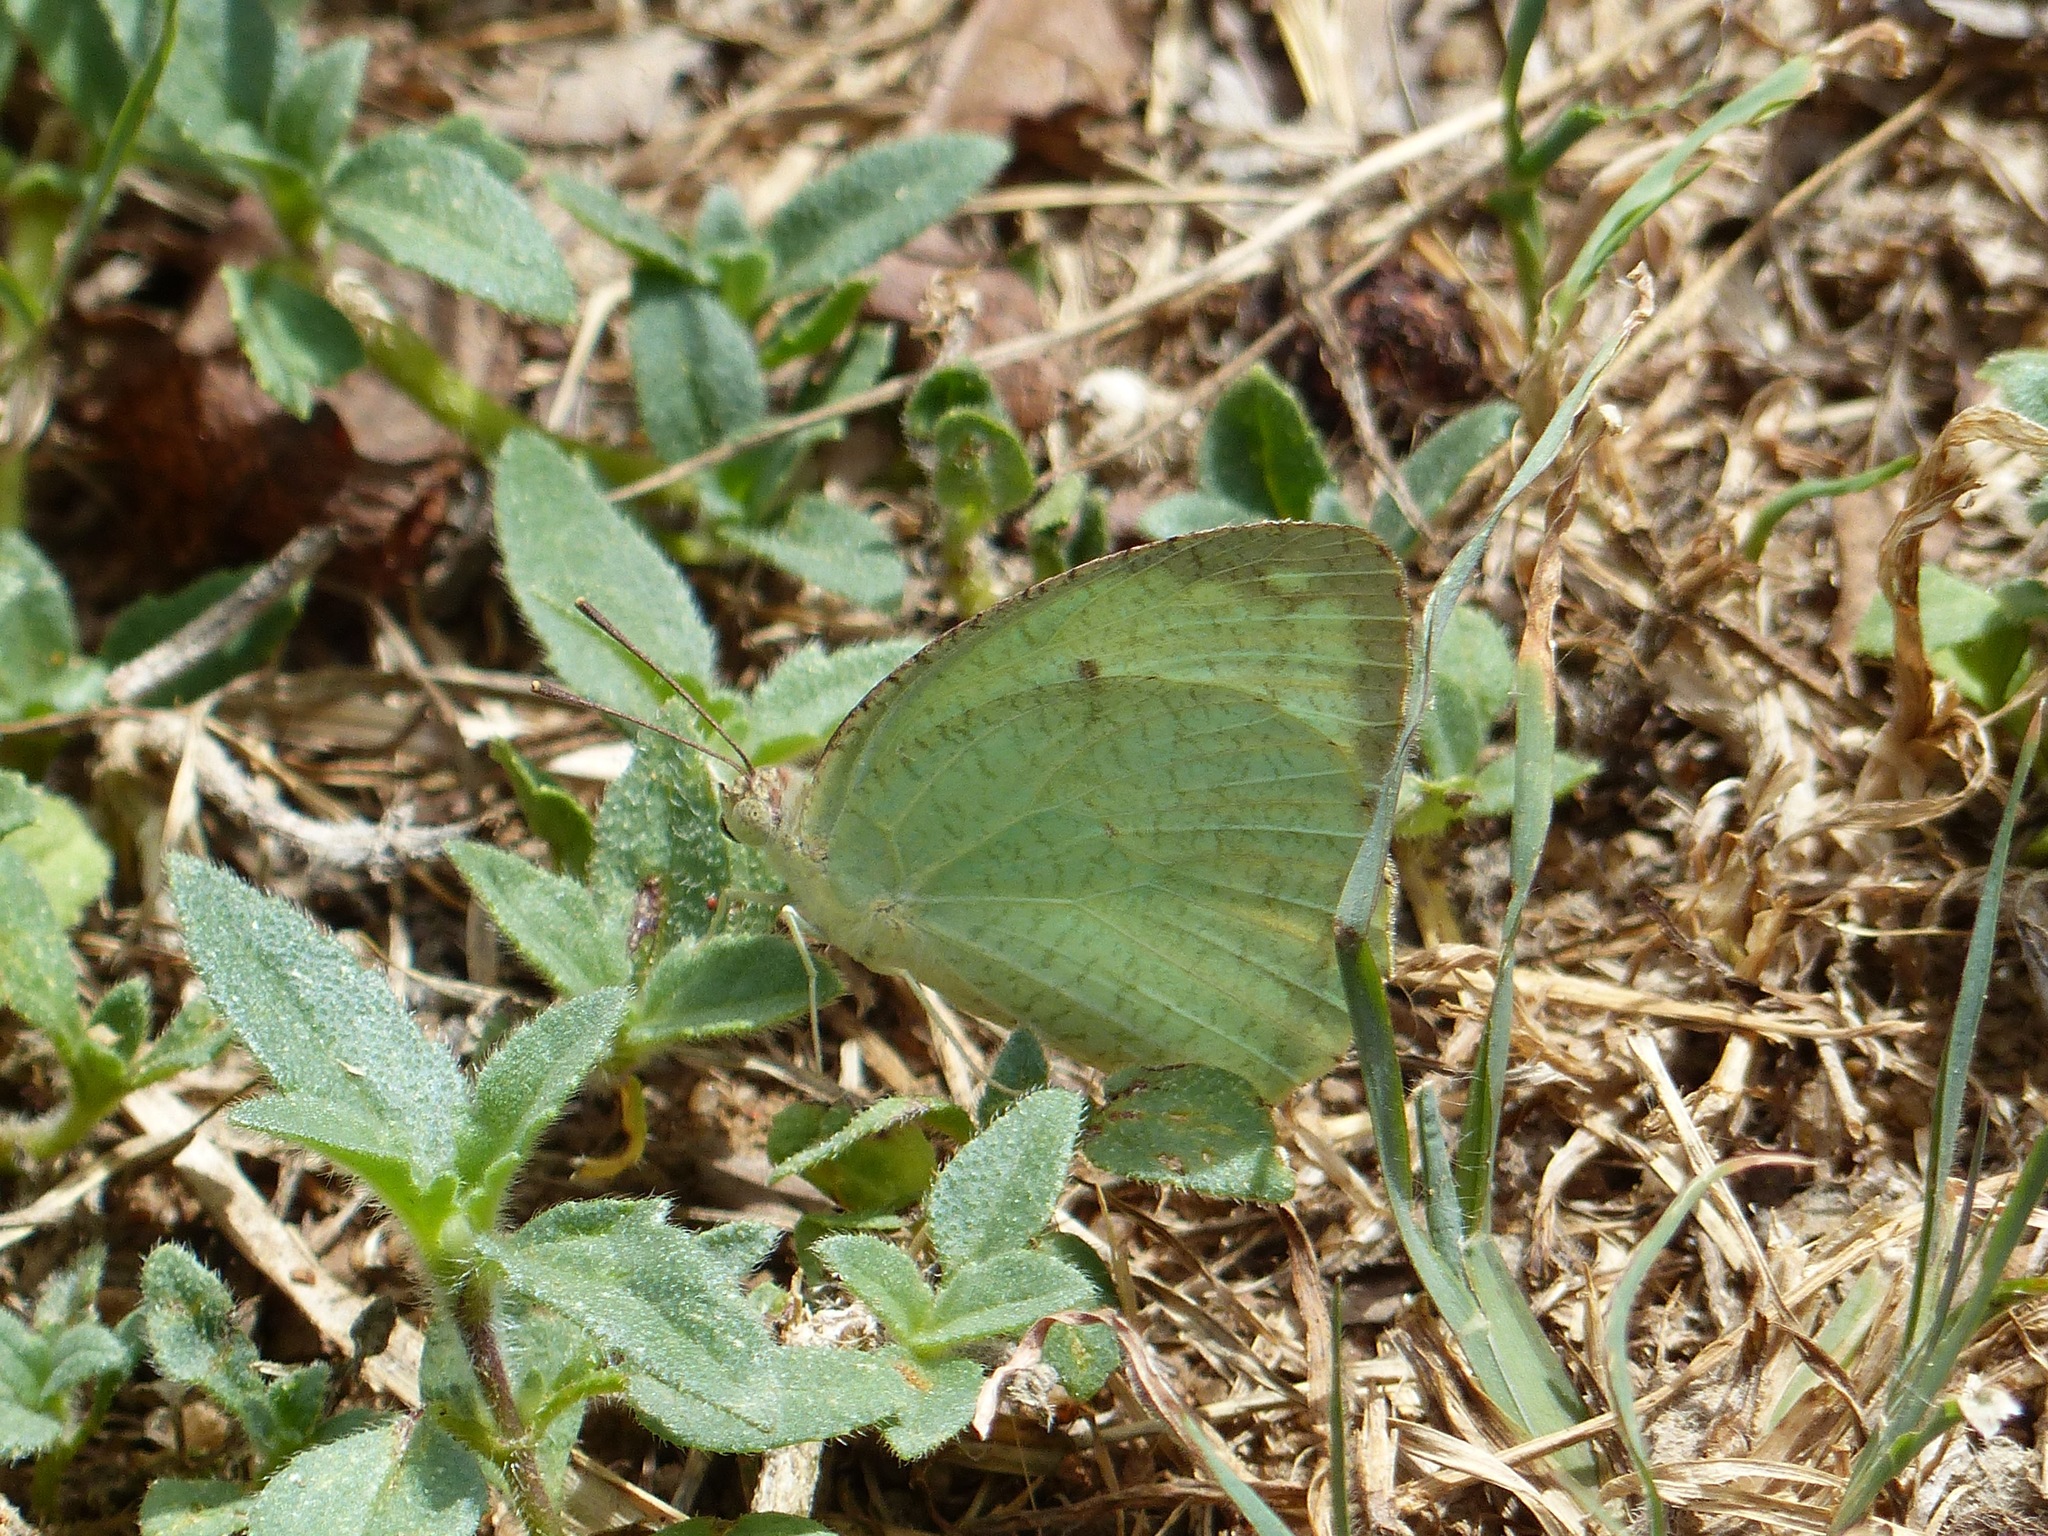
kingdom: Animalia
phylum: Arthropoda
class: Insecta
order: Lepidoptera
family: Pieridae
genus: Catopsilia
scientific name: Catopsilia pyranthe
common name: Mottled emigrant
